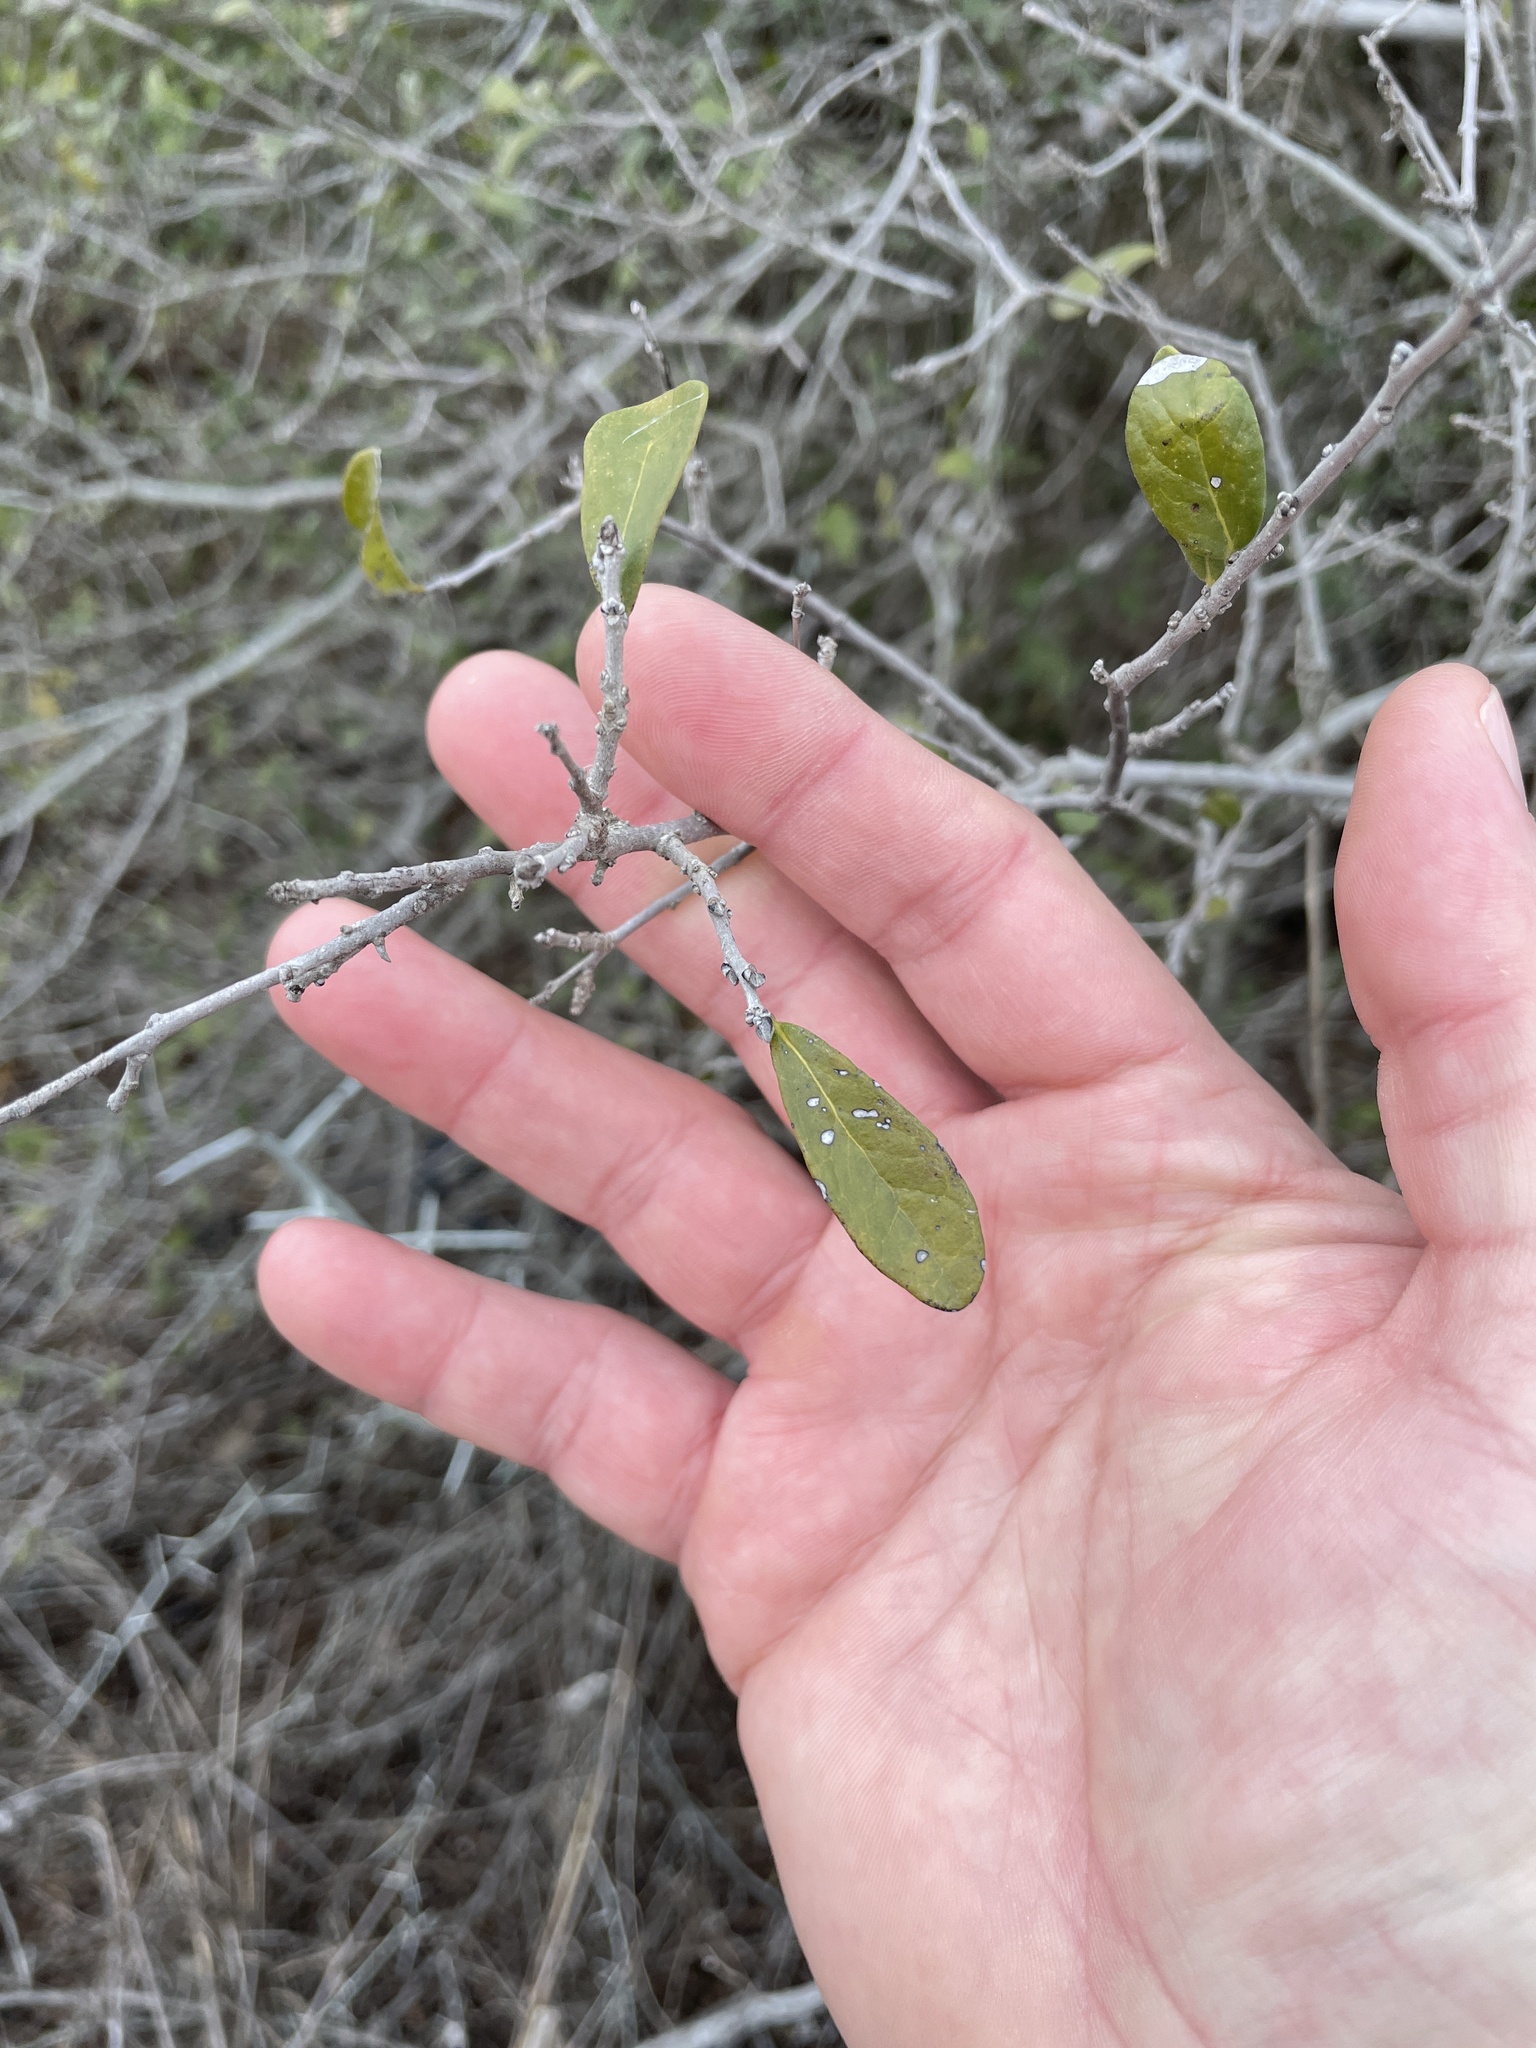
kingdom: Plantae
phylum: Tracheophyta
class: Magnoliopsida
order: Ericales
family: Ebenaceae
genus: Diospyros
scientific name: Diospyros texana
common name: Texas persimmon
